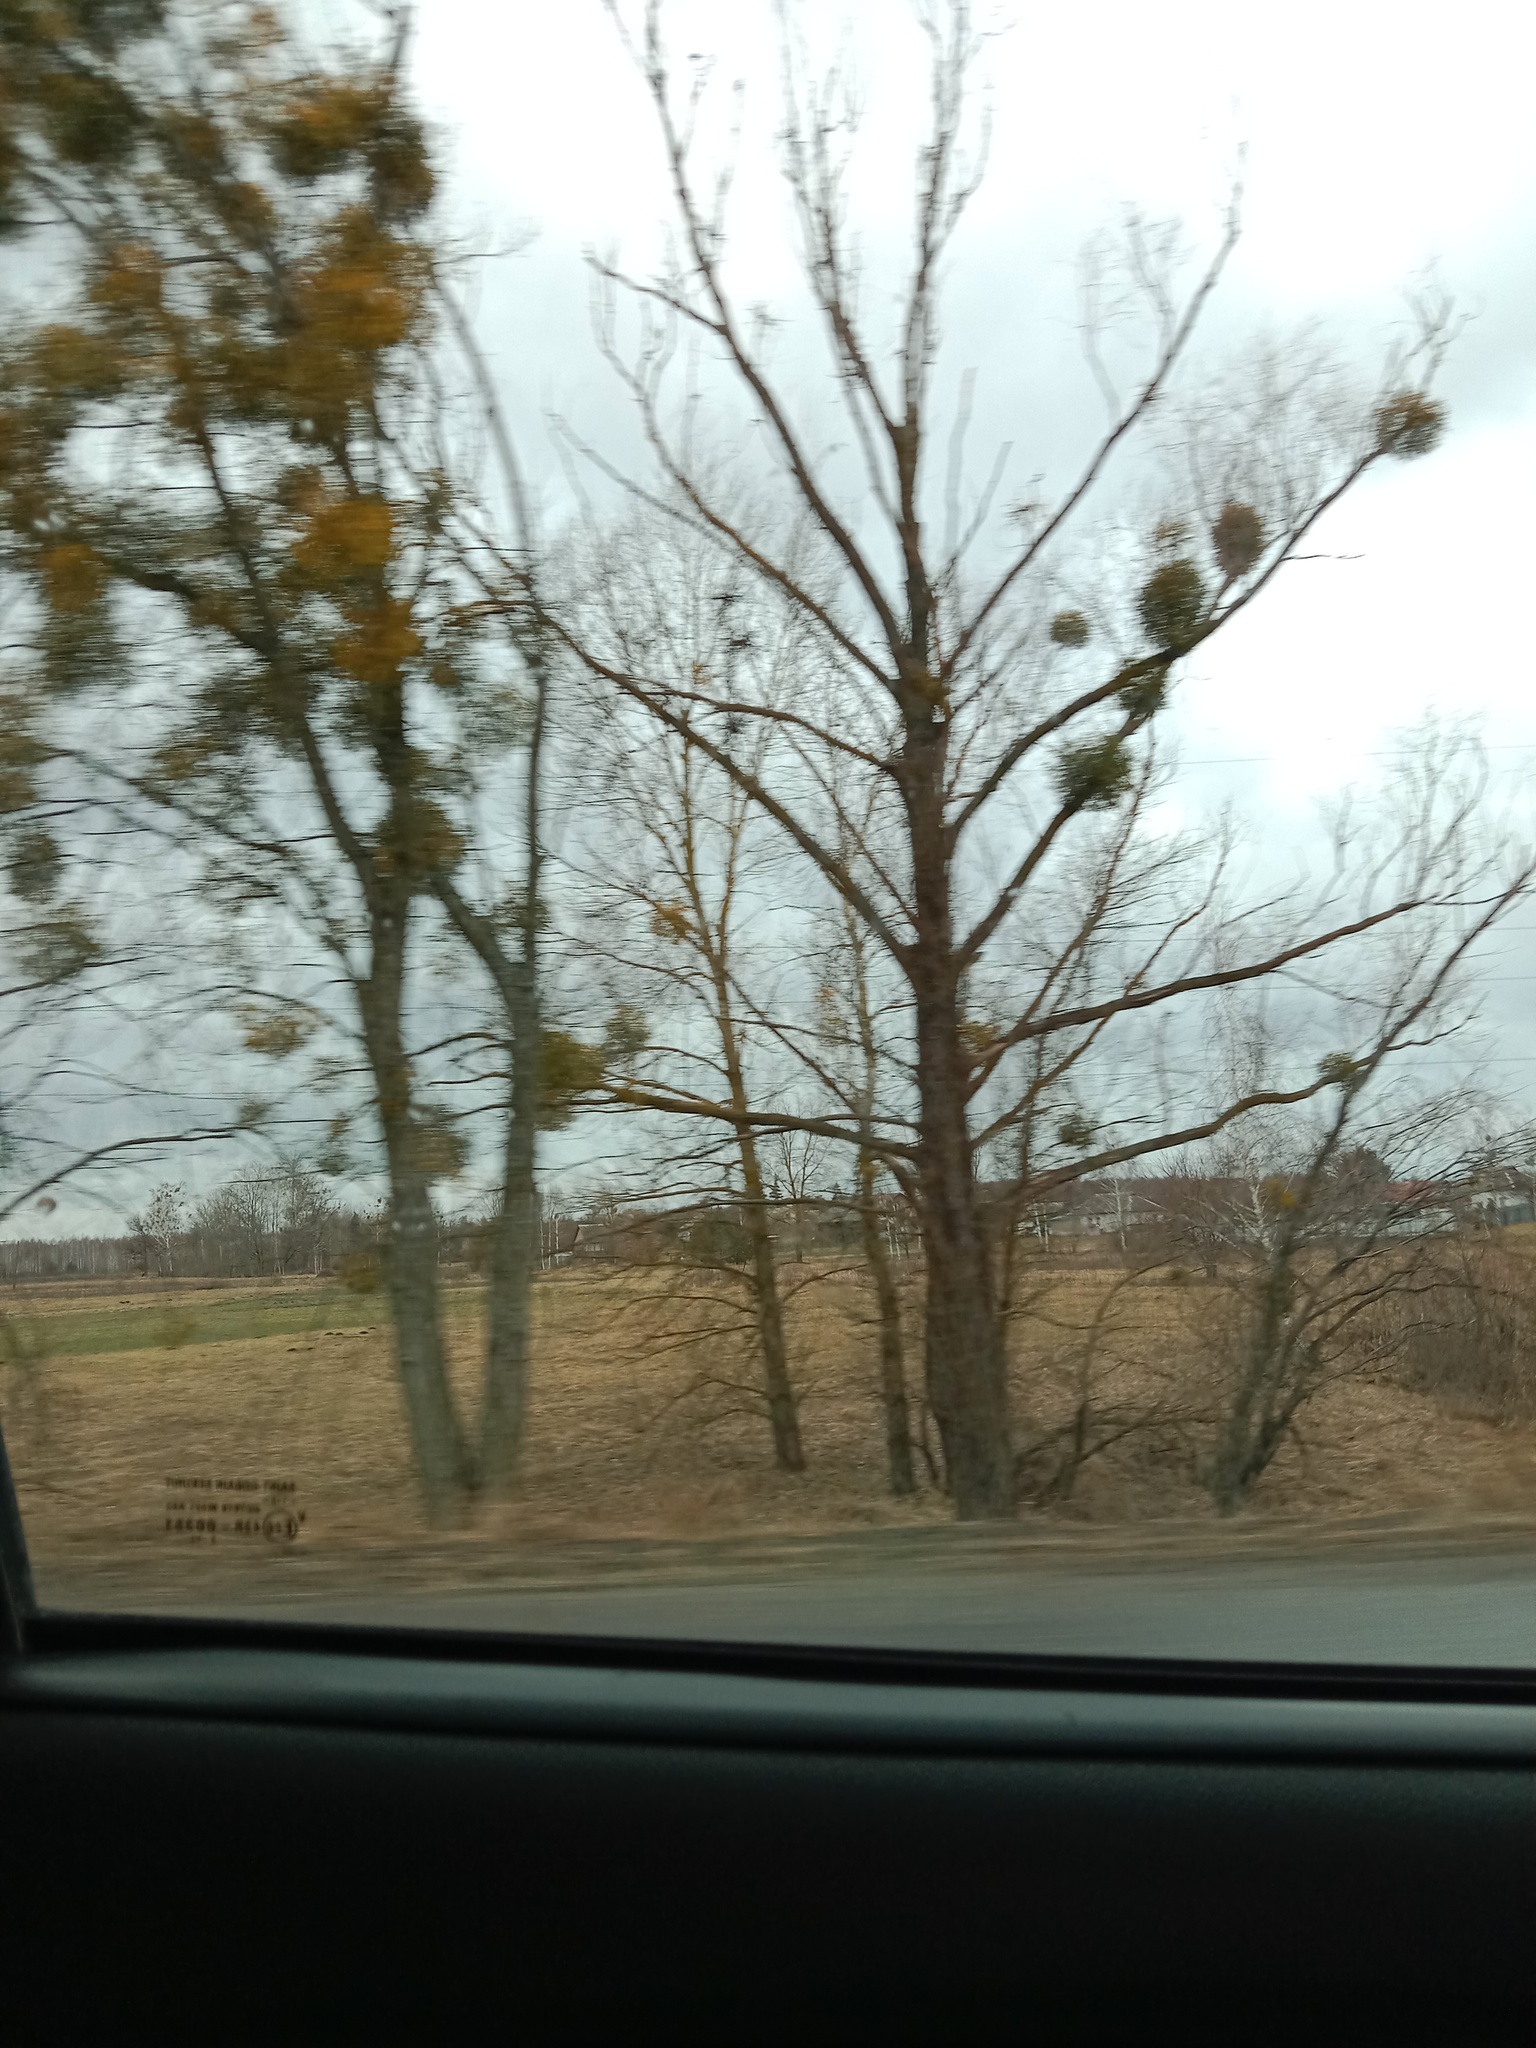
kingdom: Plantae
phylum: Tracheophyta
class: Magnoliopsida
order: Santalales
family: Viscaceae
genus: Viscum
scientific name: Viscum album
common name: Mistletoe
